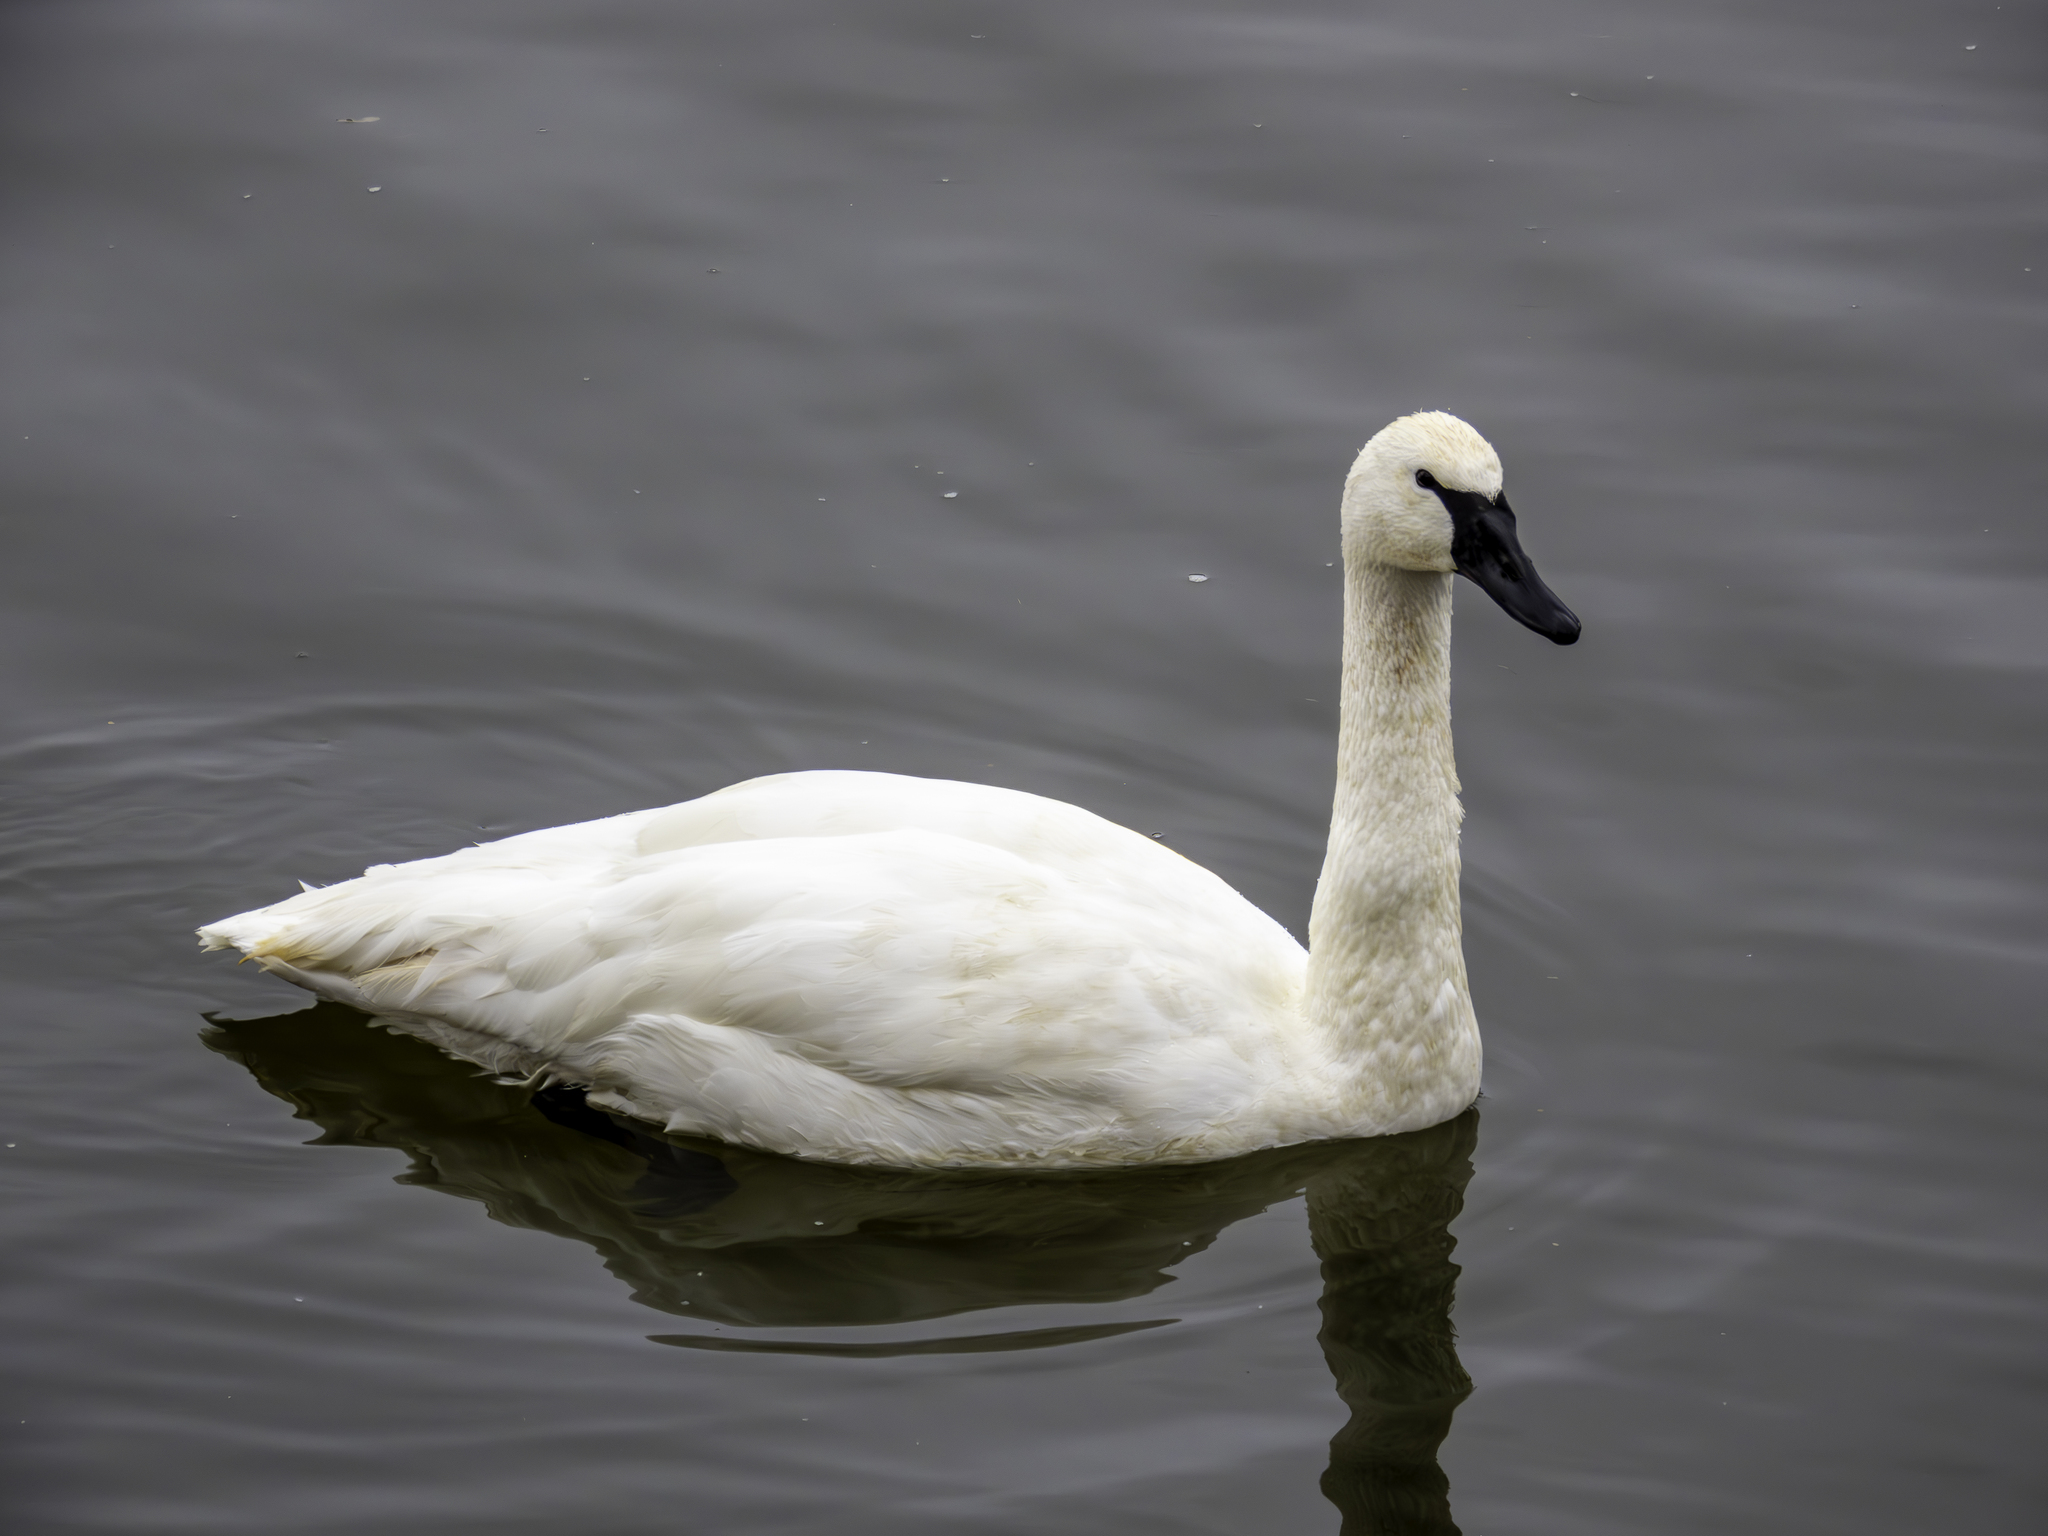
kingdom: Animalia
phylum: Chordata
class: Aves
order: Anseriformes
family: Anatidae
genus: Cygnus
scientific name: Cygnus buccinator
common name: Trumpeter swan
